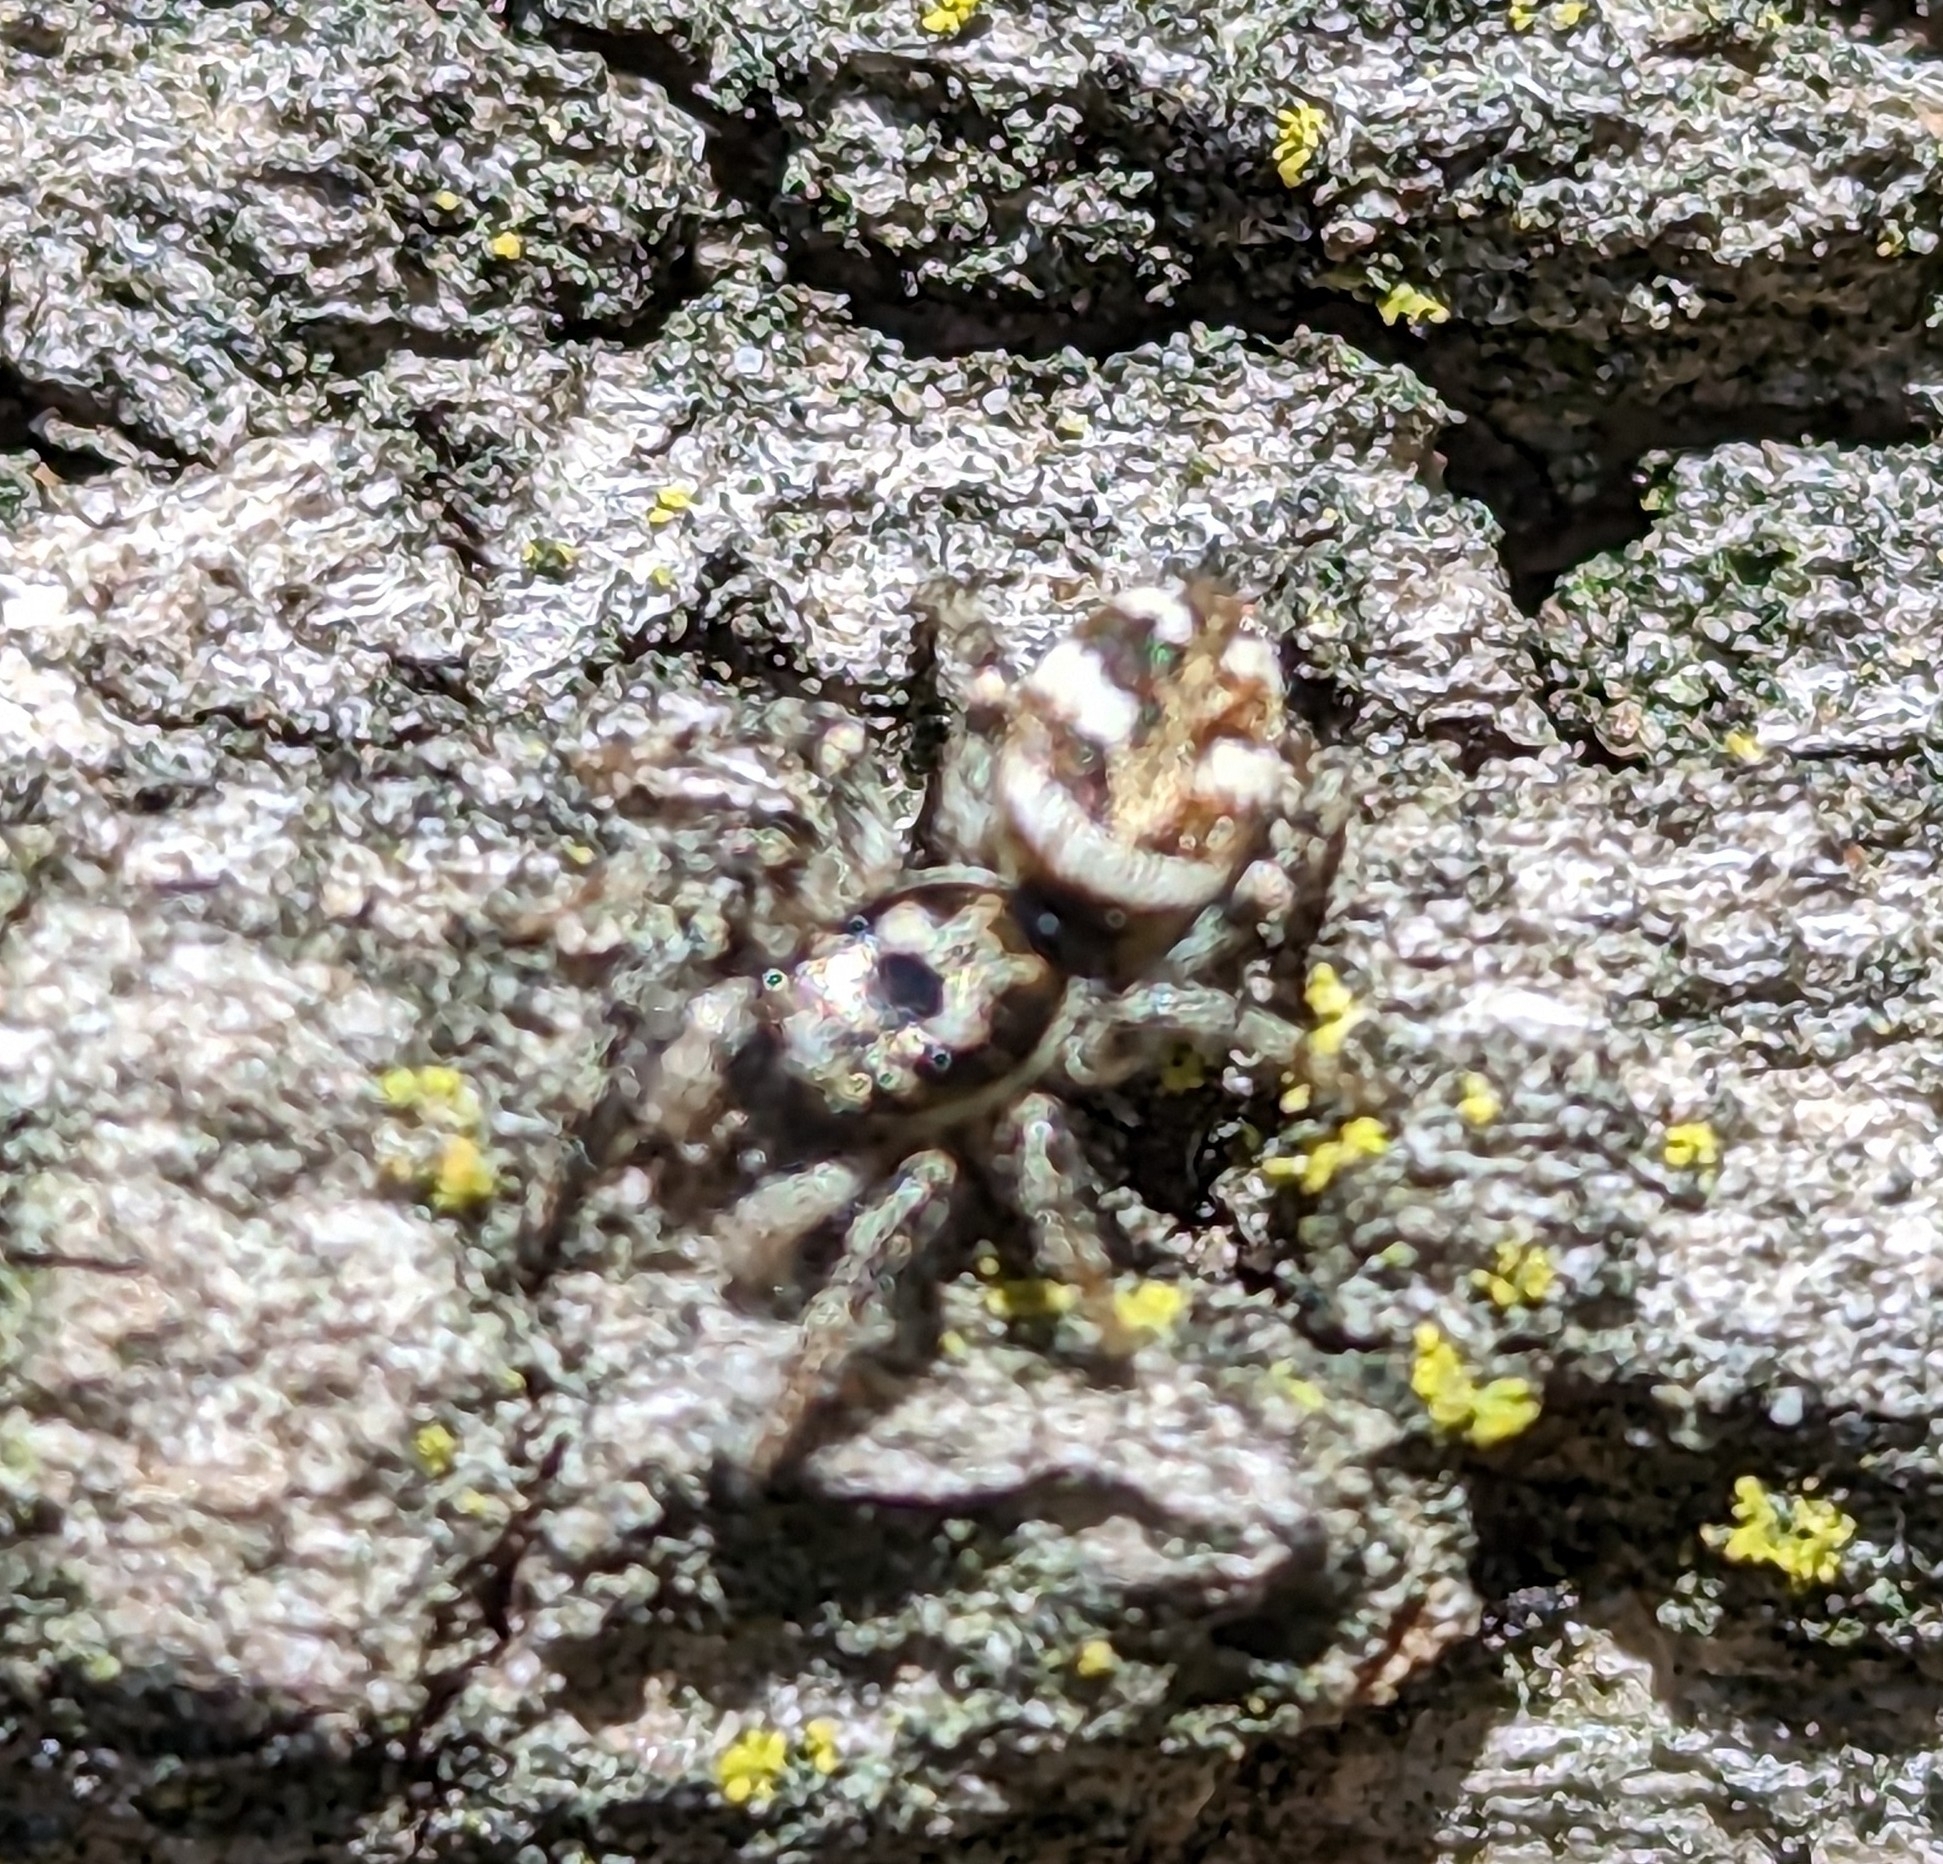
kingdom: Animalia
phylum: Arthropoda
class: Arachnida
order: Araneae
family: Salticidae
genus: Salticus
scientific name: Salticus scenicus
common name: Zebra jumper
